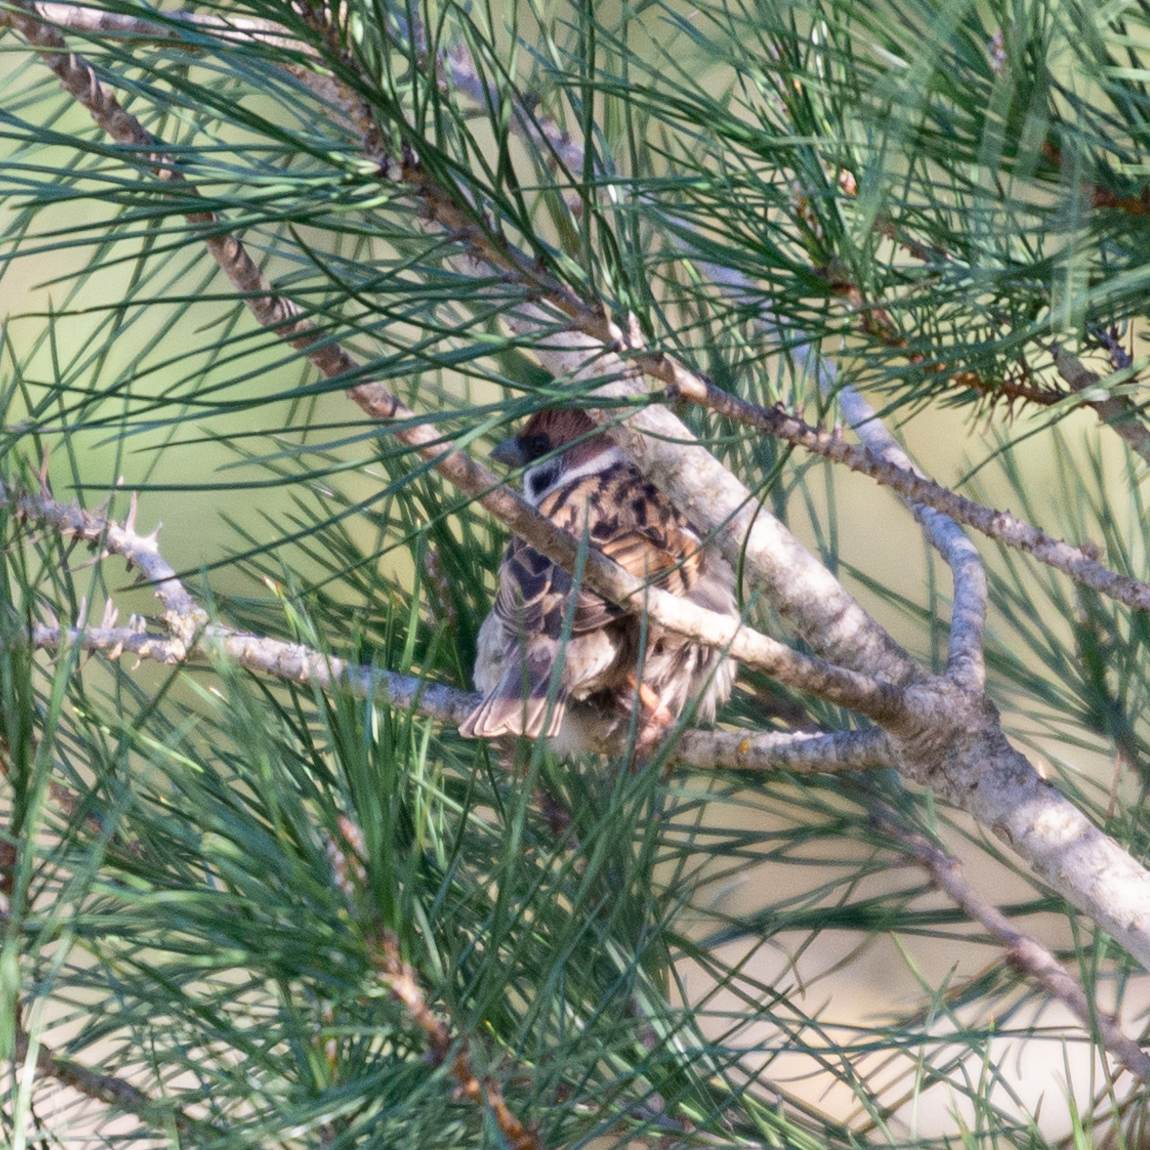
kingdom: Animalia
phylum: Chordata
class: Aves
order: Passeriformes
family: Passeridae
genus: Passer
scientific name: Passer montanus
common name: Eurasian tree sparrow
